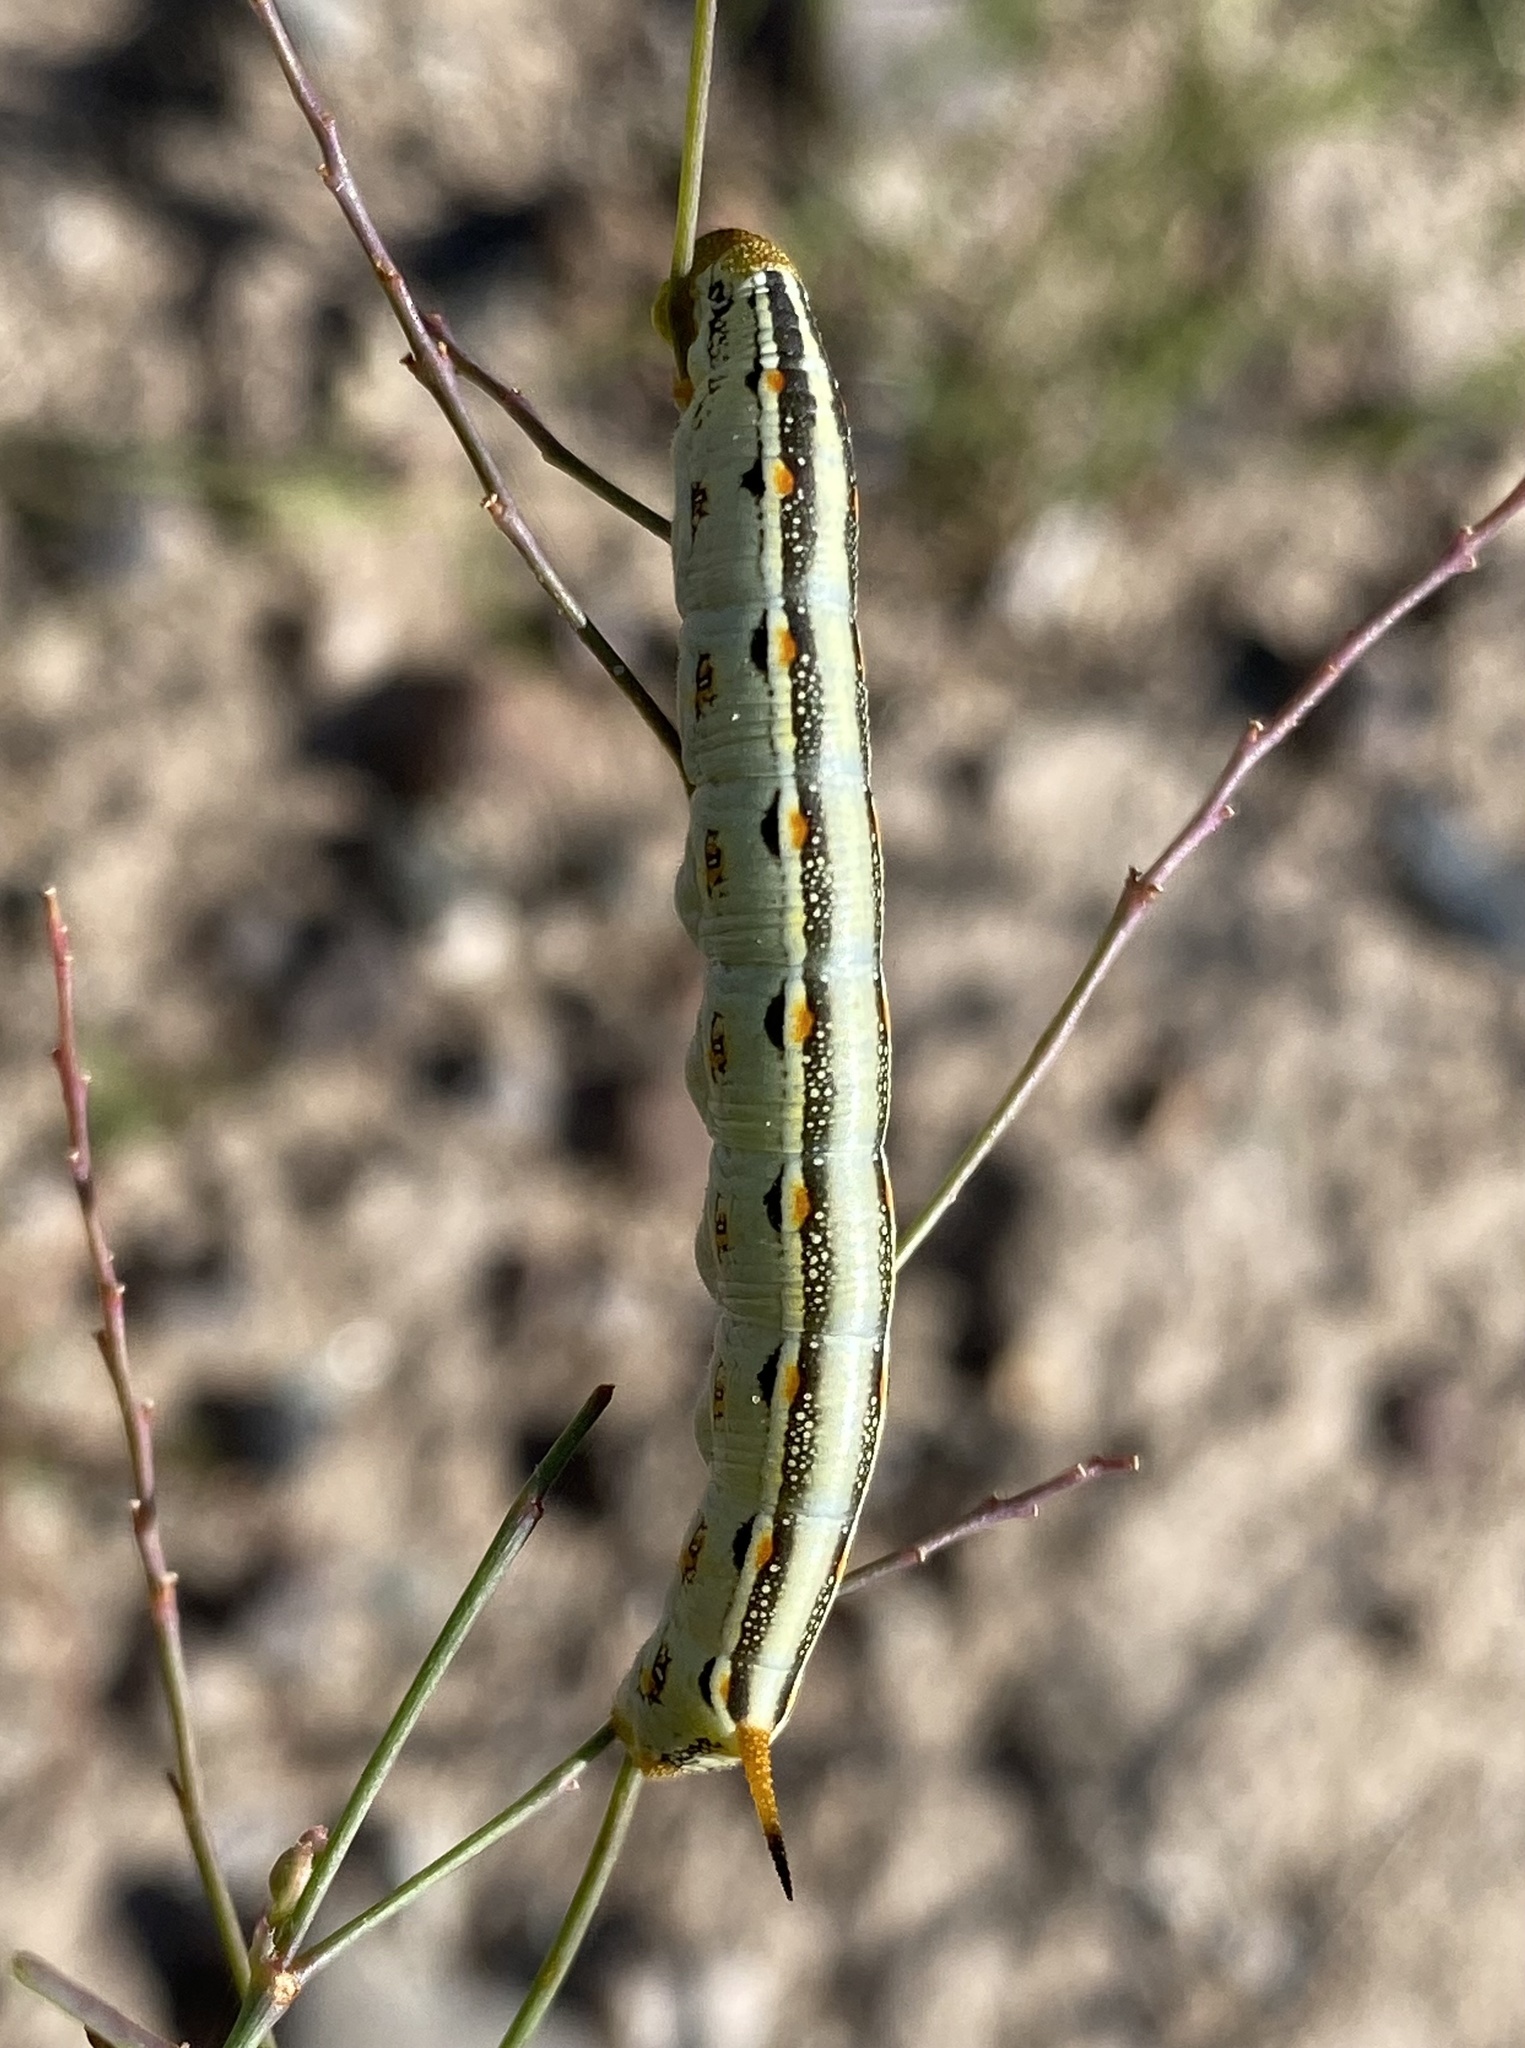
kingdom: Animalia
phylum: Arthropoda
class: Insecta
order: Lepidoptera
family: Sphingidae
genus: Hyles
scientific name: Hyles lineata
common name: White-lined sphinx
